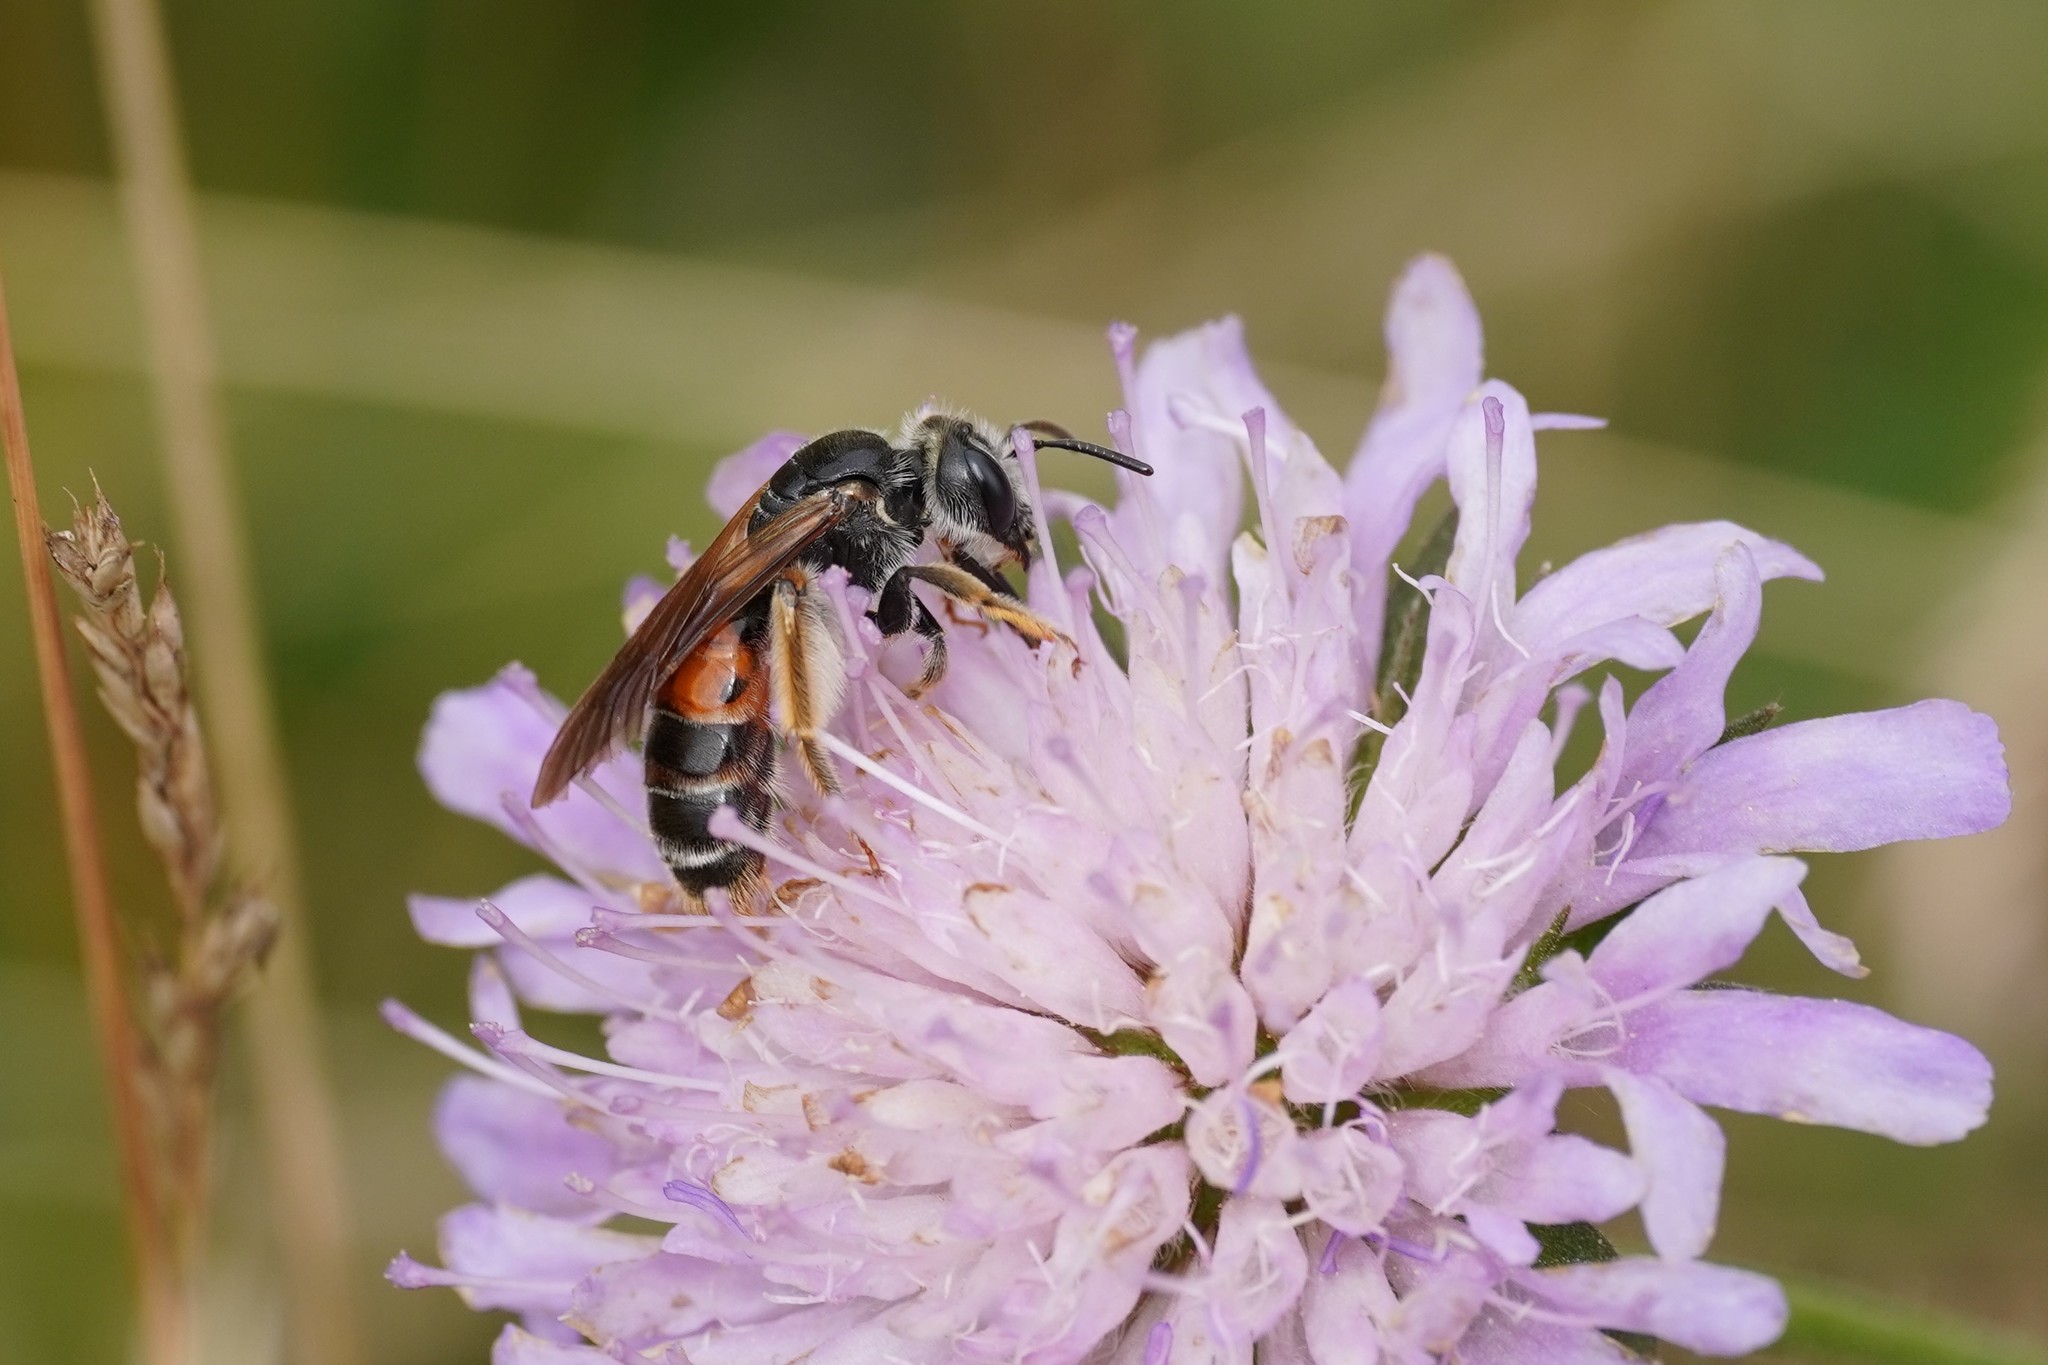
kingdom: Animalia
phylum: Arthropoda
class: Insecta
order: Hymenoptera
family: Andrenidae
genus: Andrena
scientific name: Andrena hattorfiana
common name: Large scabious mining bee
